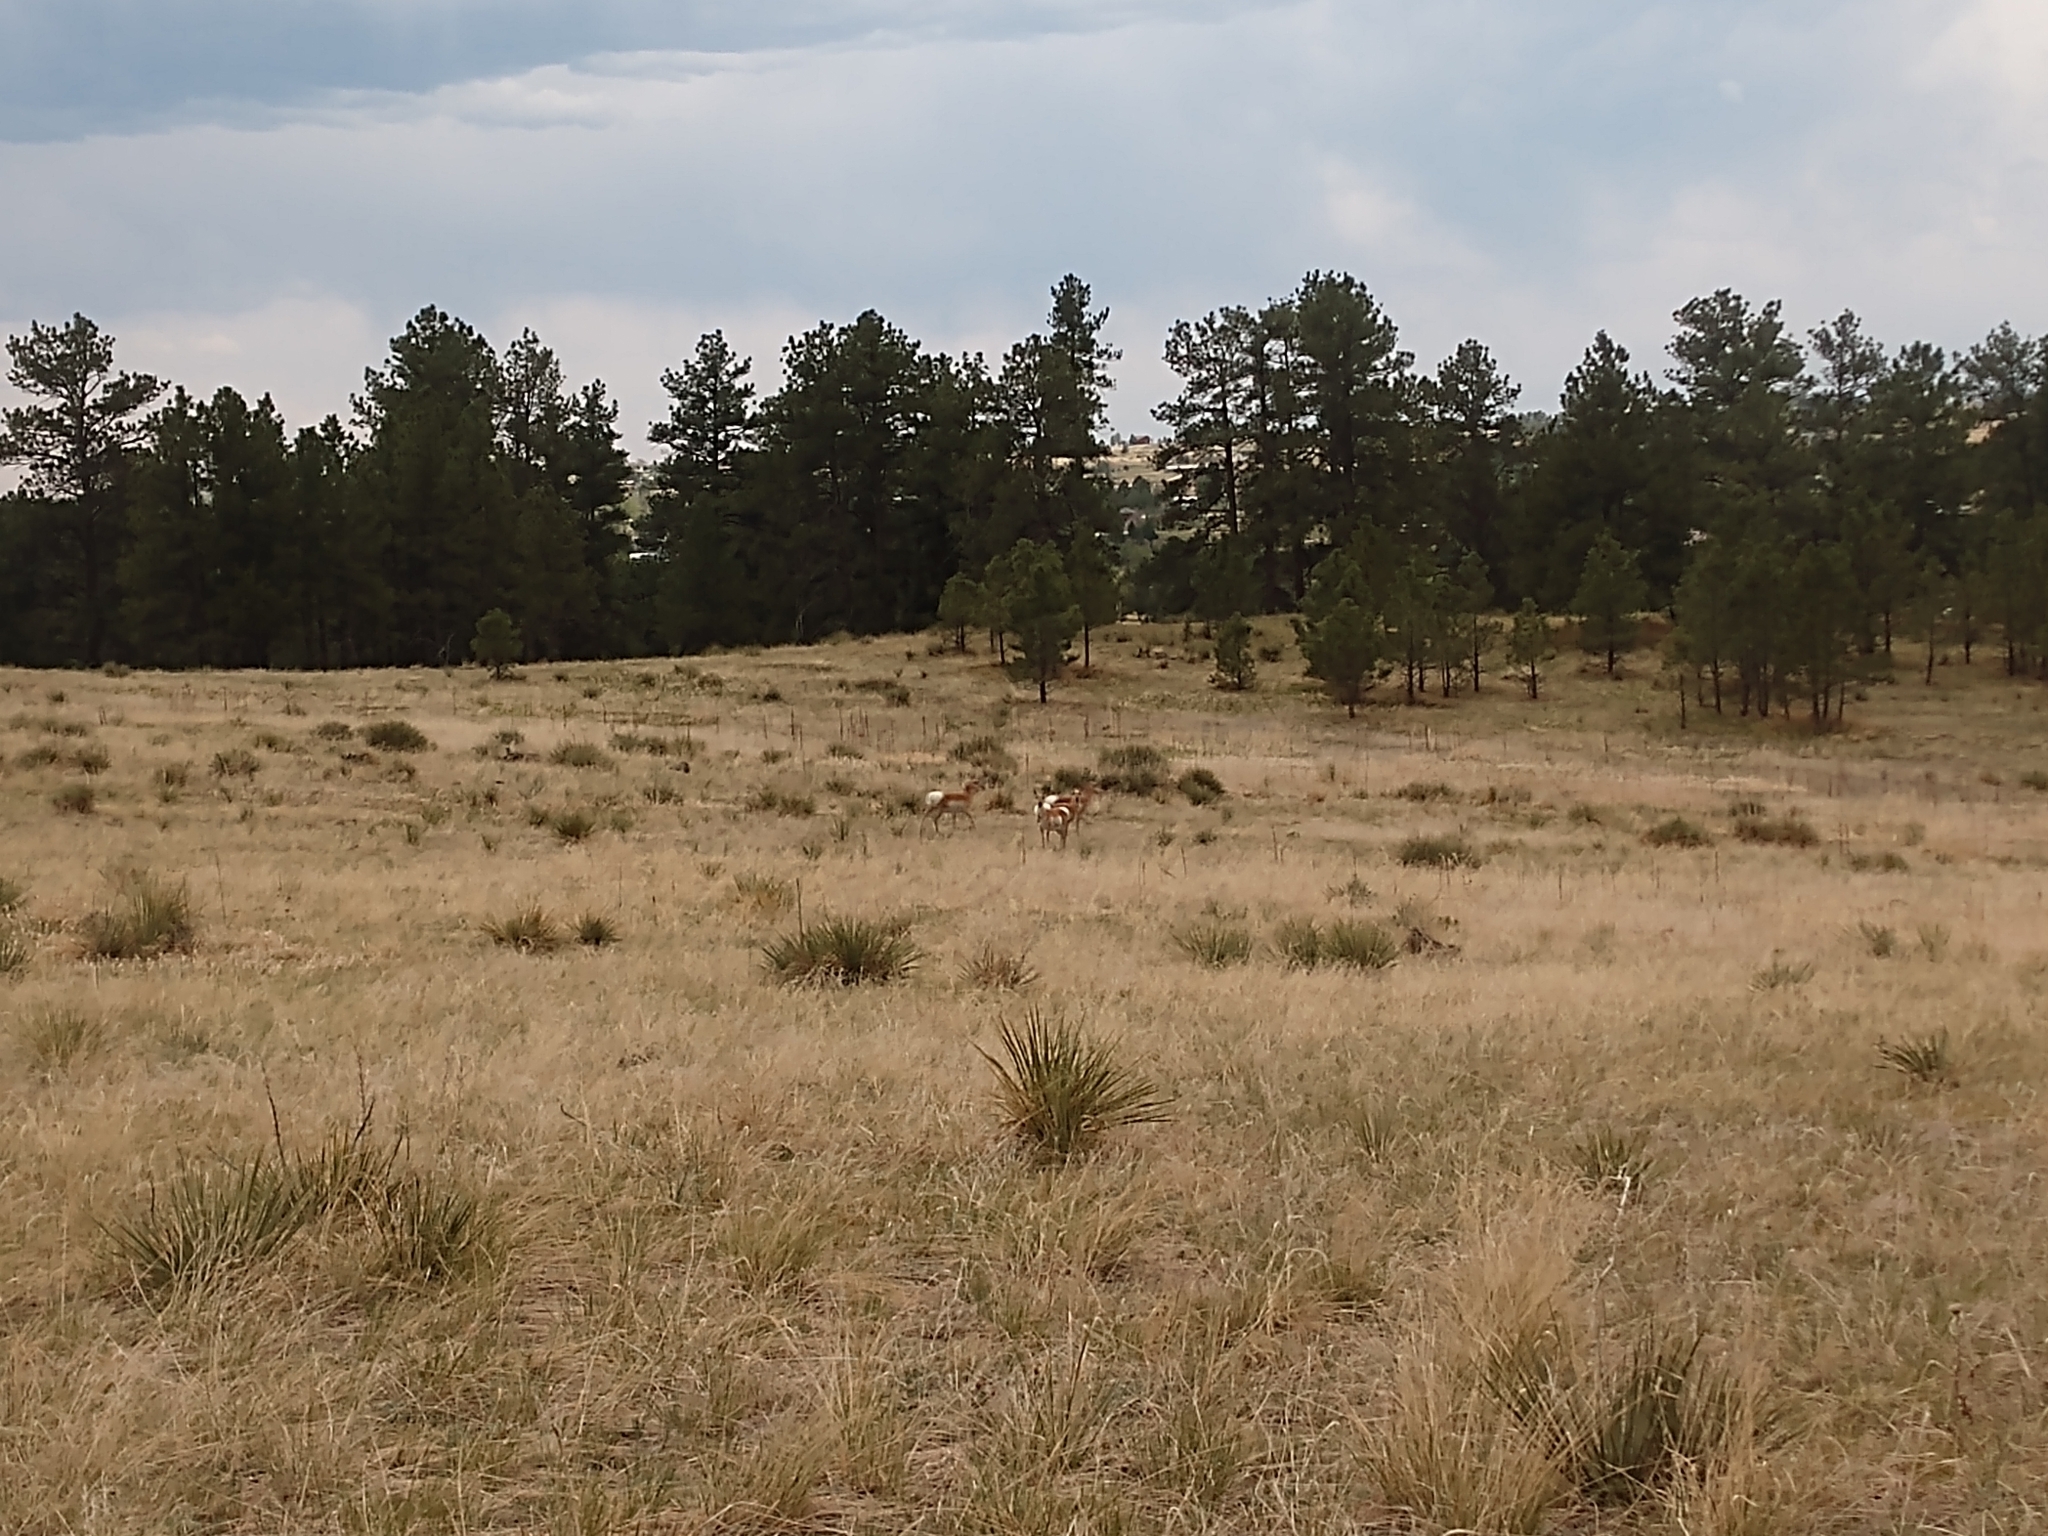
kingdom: Animalia
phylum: Chordata
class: Mammalia
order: Artiodactyla
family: Antilocapridae
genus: Antilocapra
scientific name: Antilocapra americana
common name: Pronghorn
